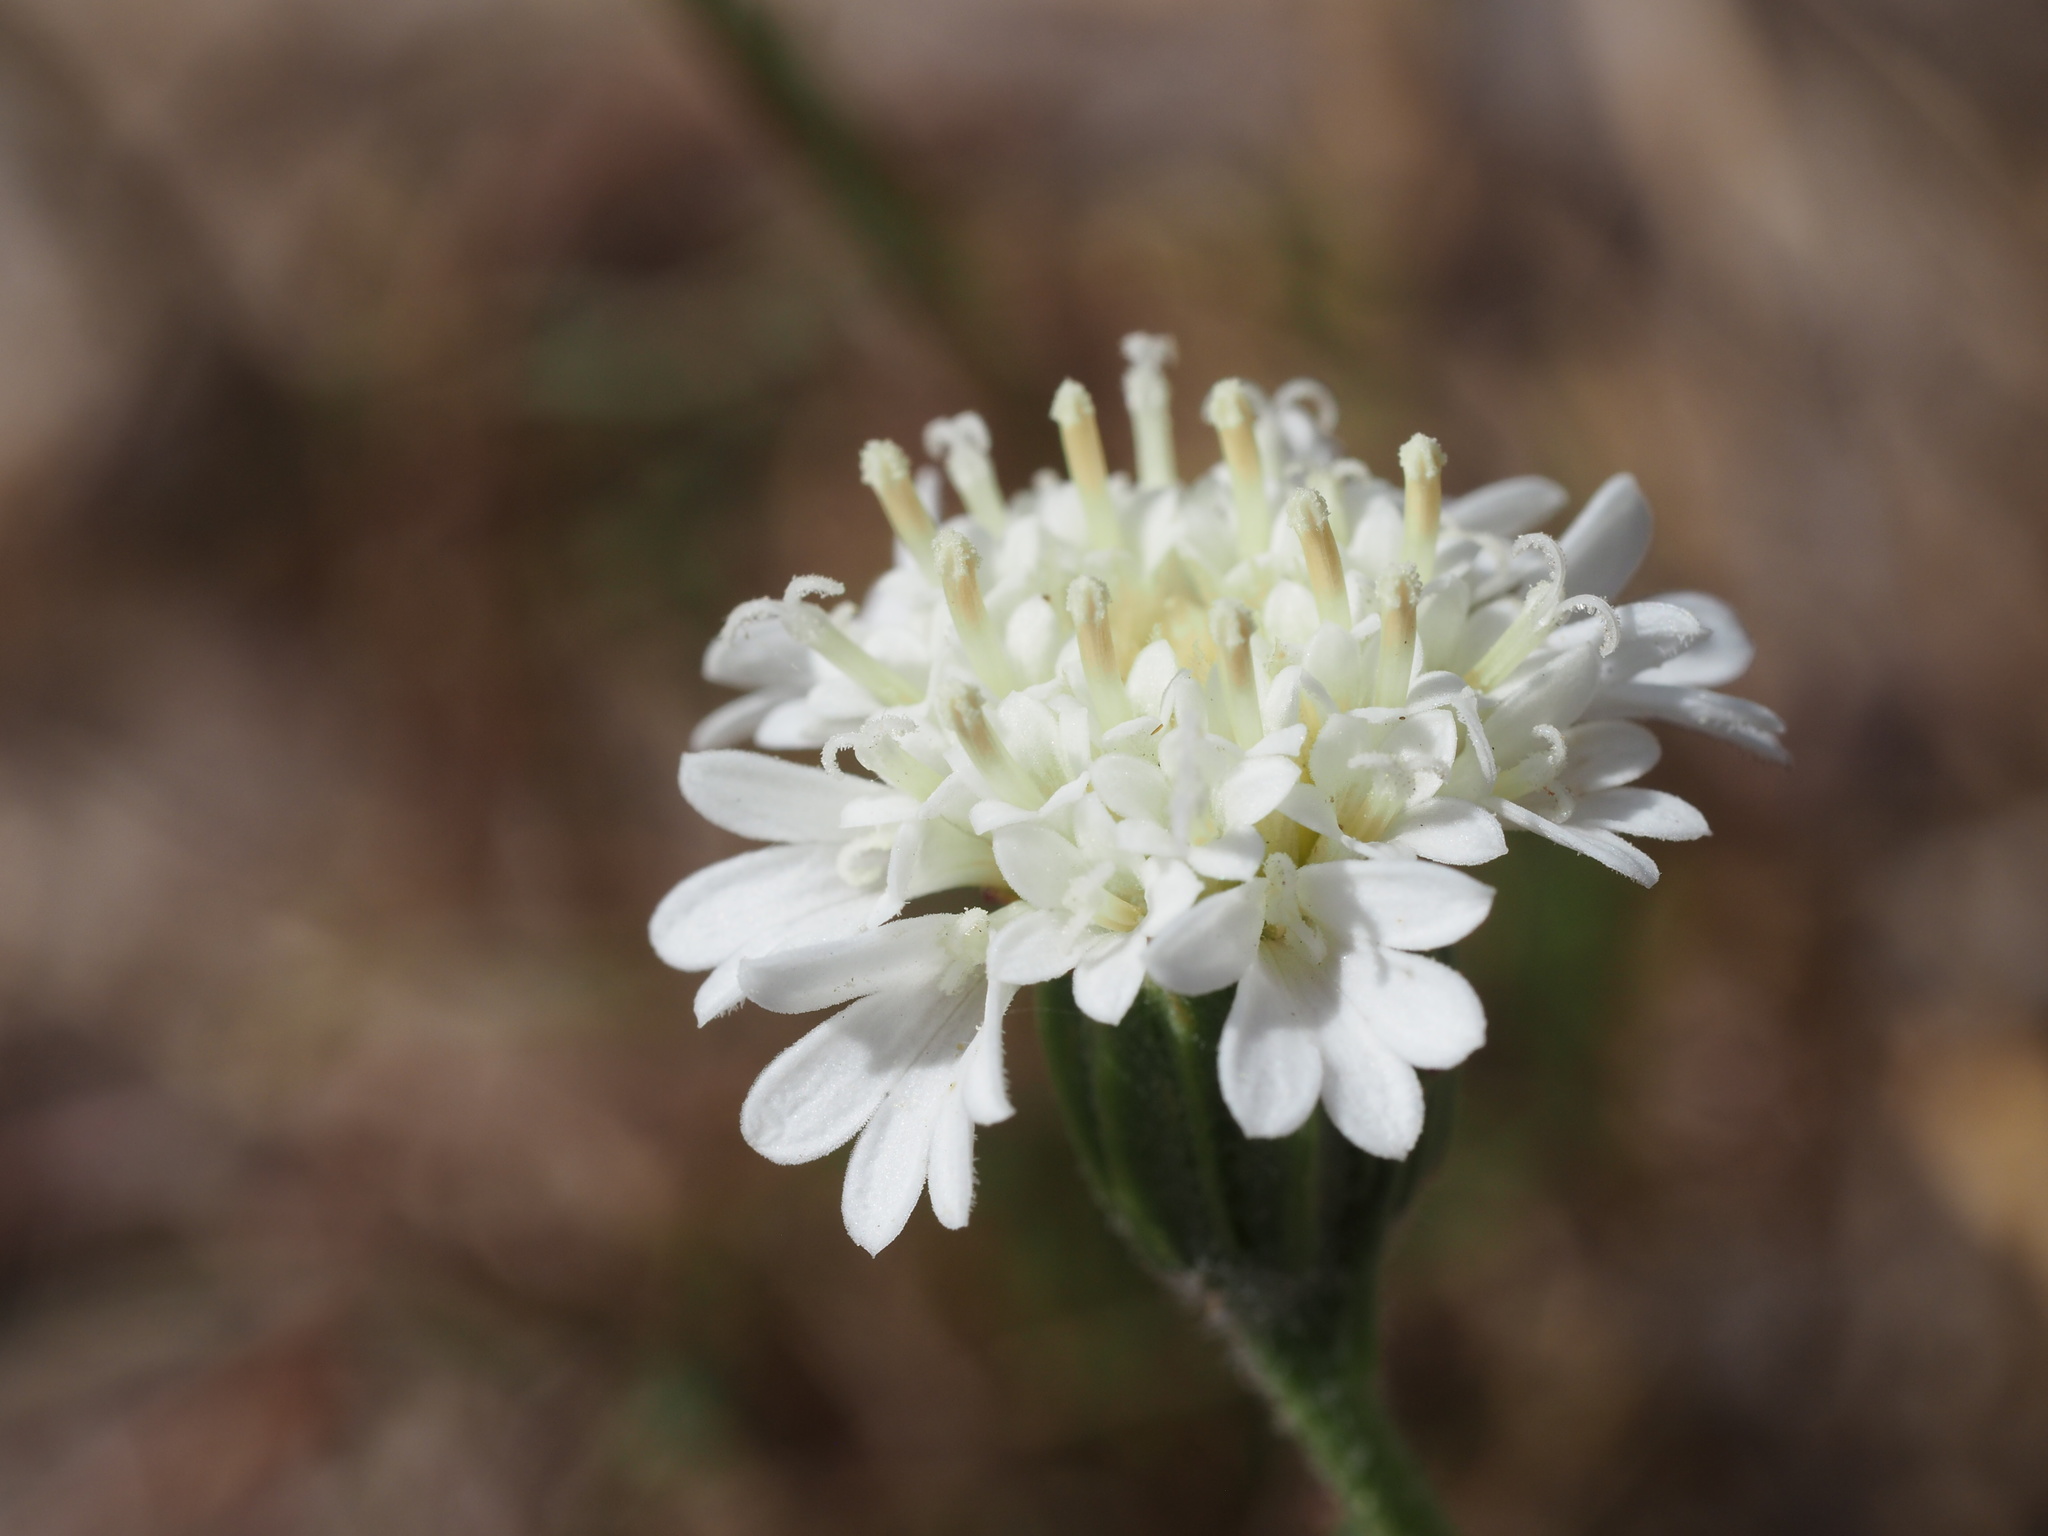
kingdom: Plantae
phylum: Tracheophyta
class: Magnoliopsida
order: Asterales
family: Asteraceae
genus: Chaenactis
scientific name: Chaenactis fremontii
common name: Fremont pincushion
